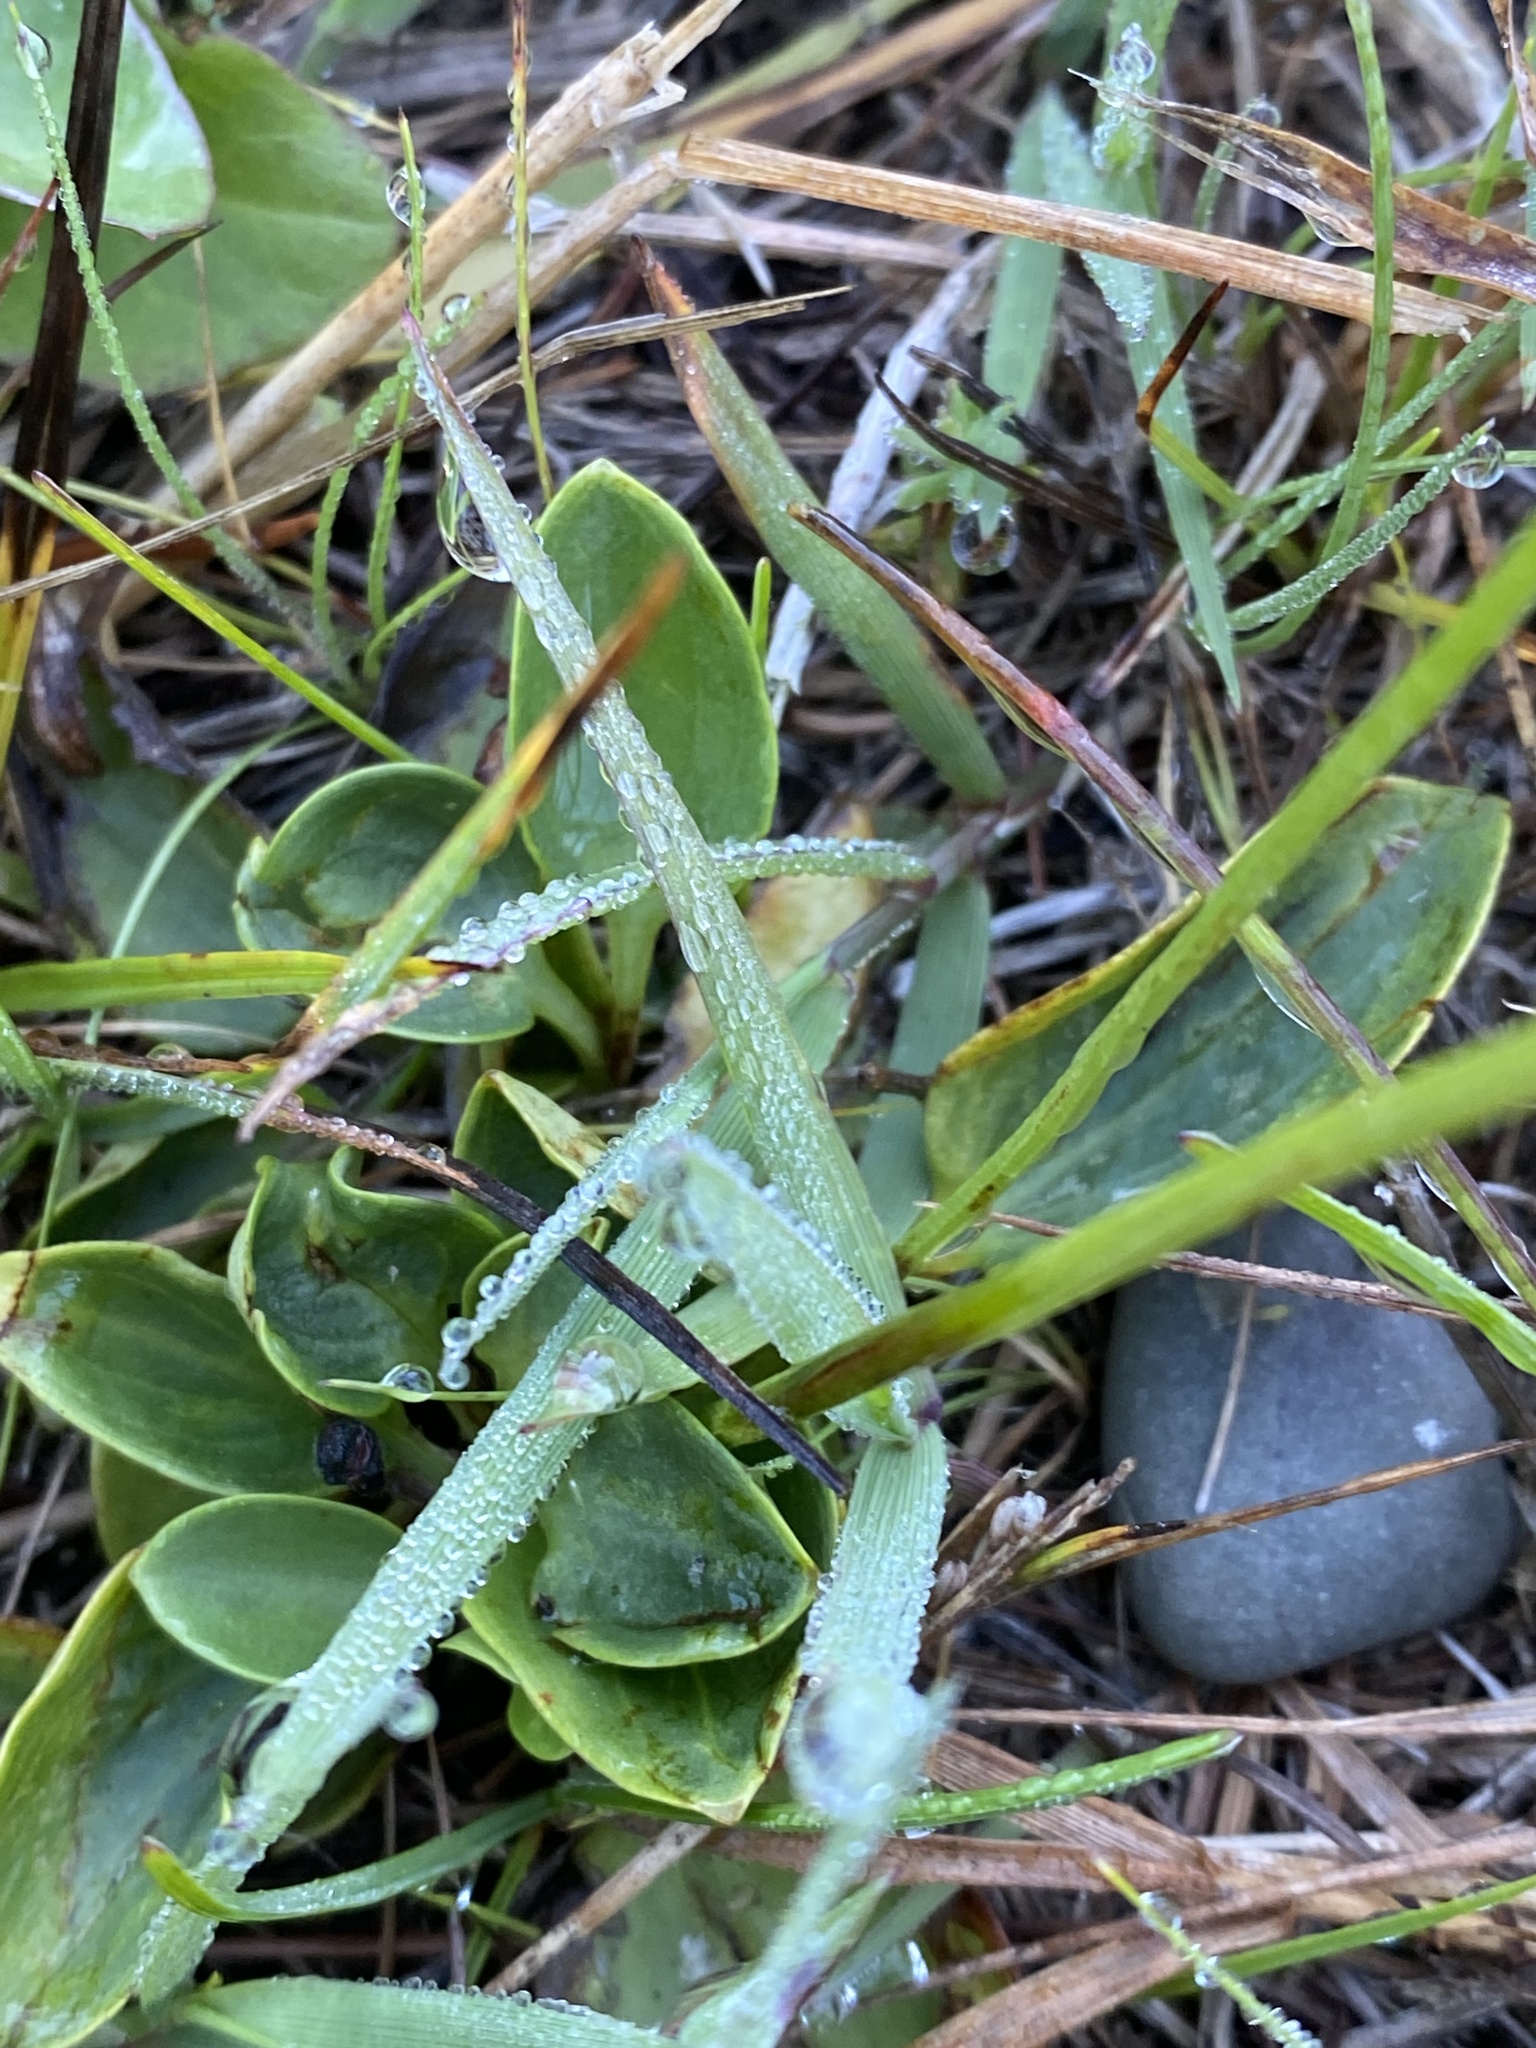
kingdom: Plantae
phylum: Tracheophyta
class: Magnoliopsida
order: Celastrales
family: Parnassiaceae
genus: Parnassia
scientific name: Parnassia glauca
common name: American grass-of-parnassus
